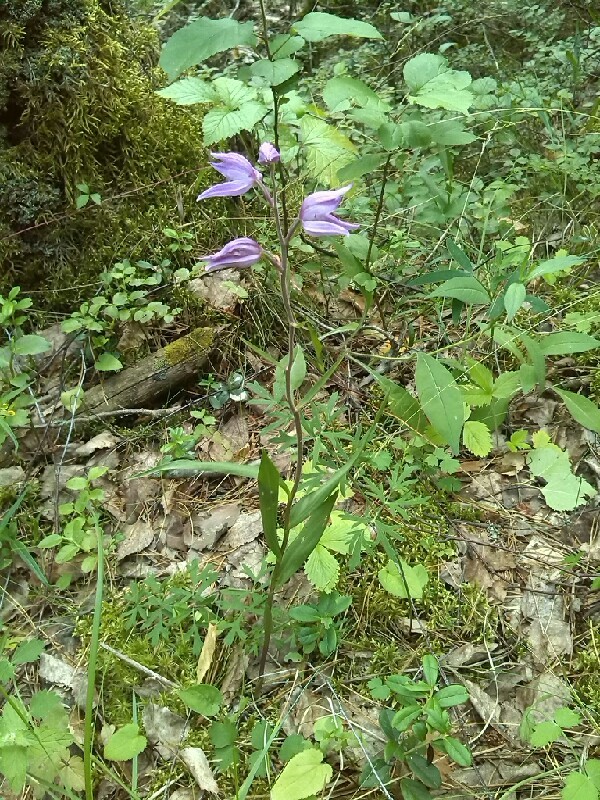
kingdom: Plantae
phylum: Tracheophyta
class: Liliopsida
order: Asparagales
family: Orchidaceae
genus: Cephalanthera
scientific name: Cephalanthera rubra
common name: Red helleborine
